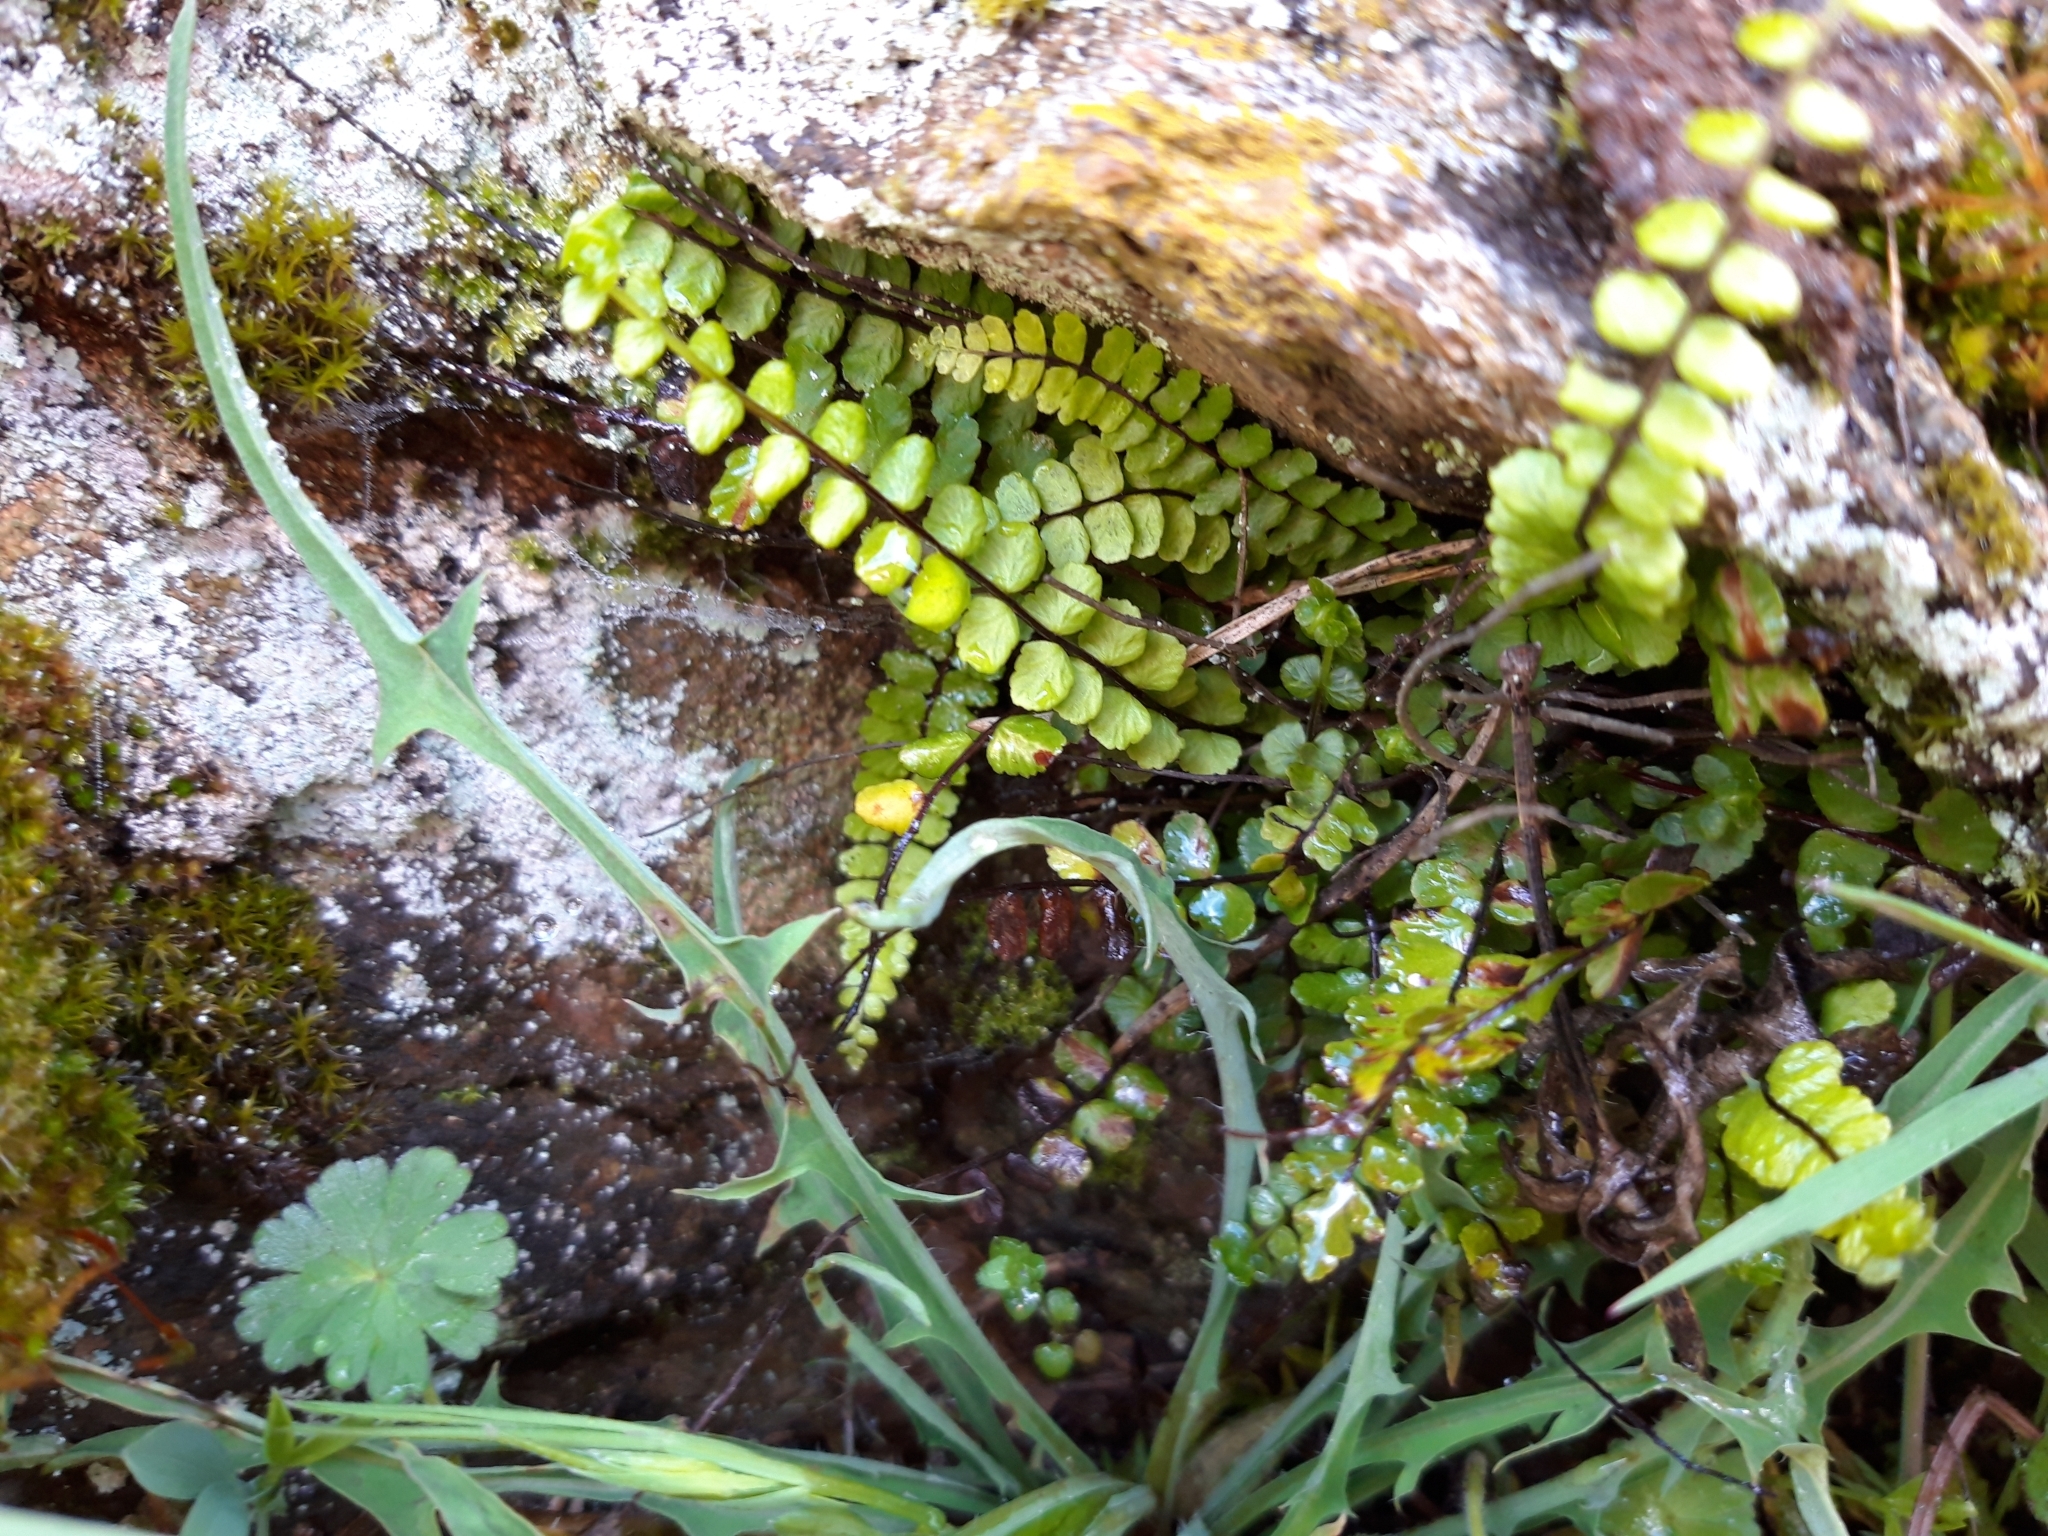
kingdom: Plantae
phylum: Tracheophyta
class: Polypodiopsida
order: Polypodiales
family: Aspleniaceae
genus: Asplenium
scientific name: Asplenium trichomanes
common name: Maidenhair spleenwort
